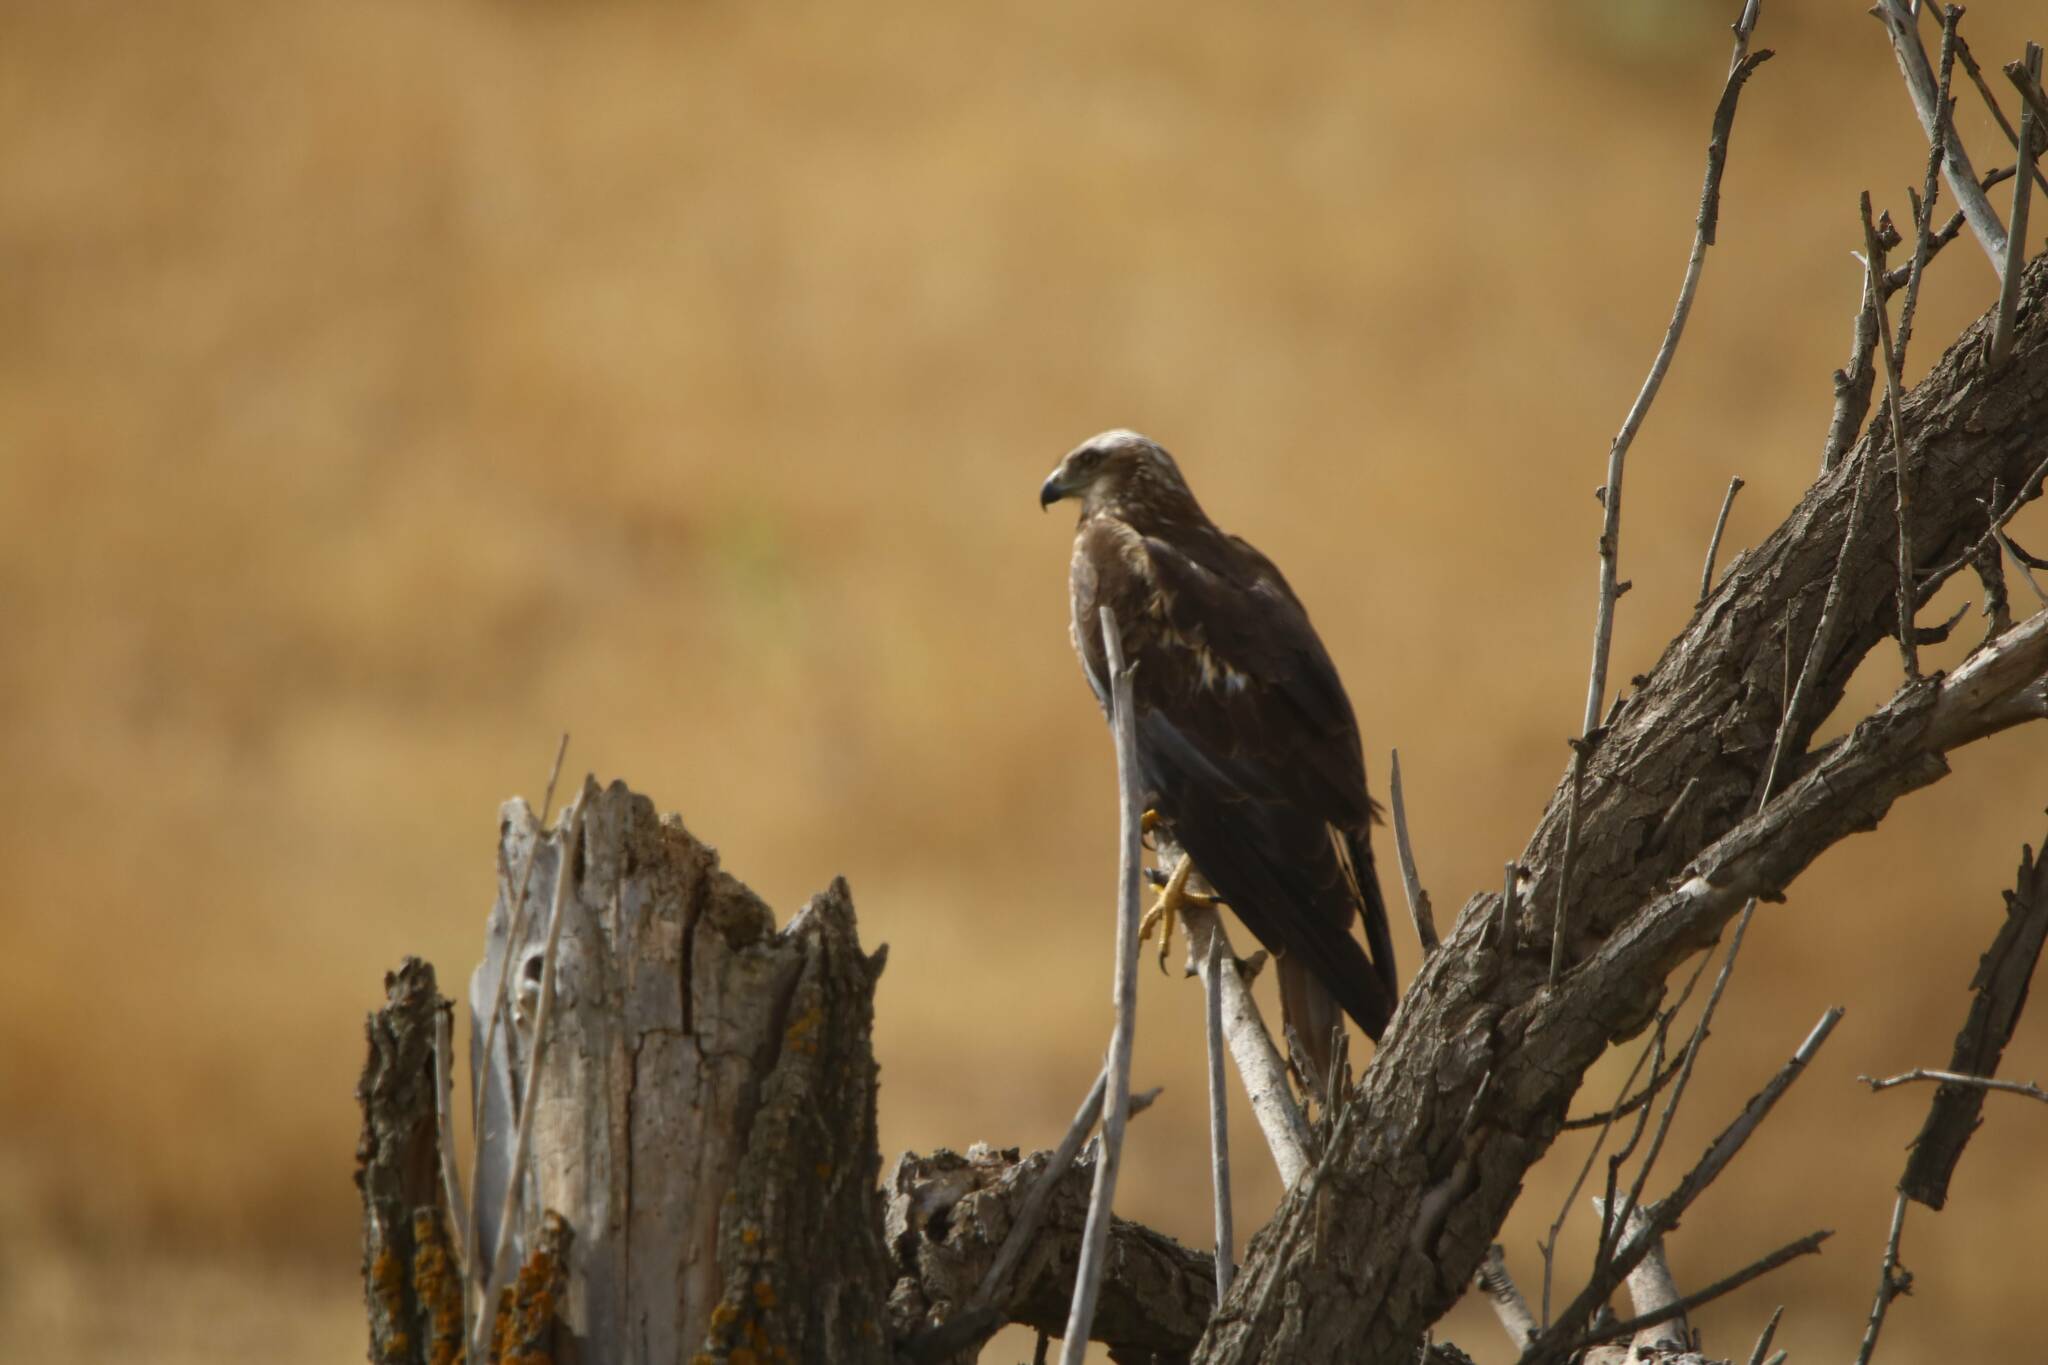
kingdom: Animalia
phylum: Chordata
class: Aves
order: Accipitriformes
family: Accipitridae
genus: Circus
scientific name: Circus aeruginosus
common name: Western marsh harrier
